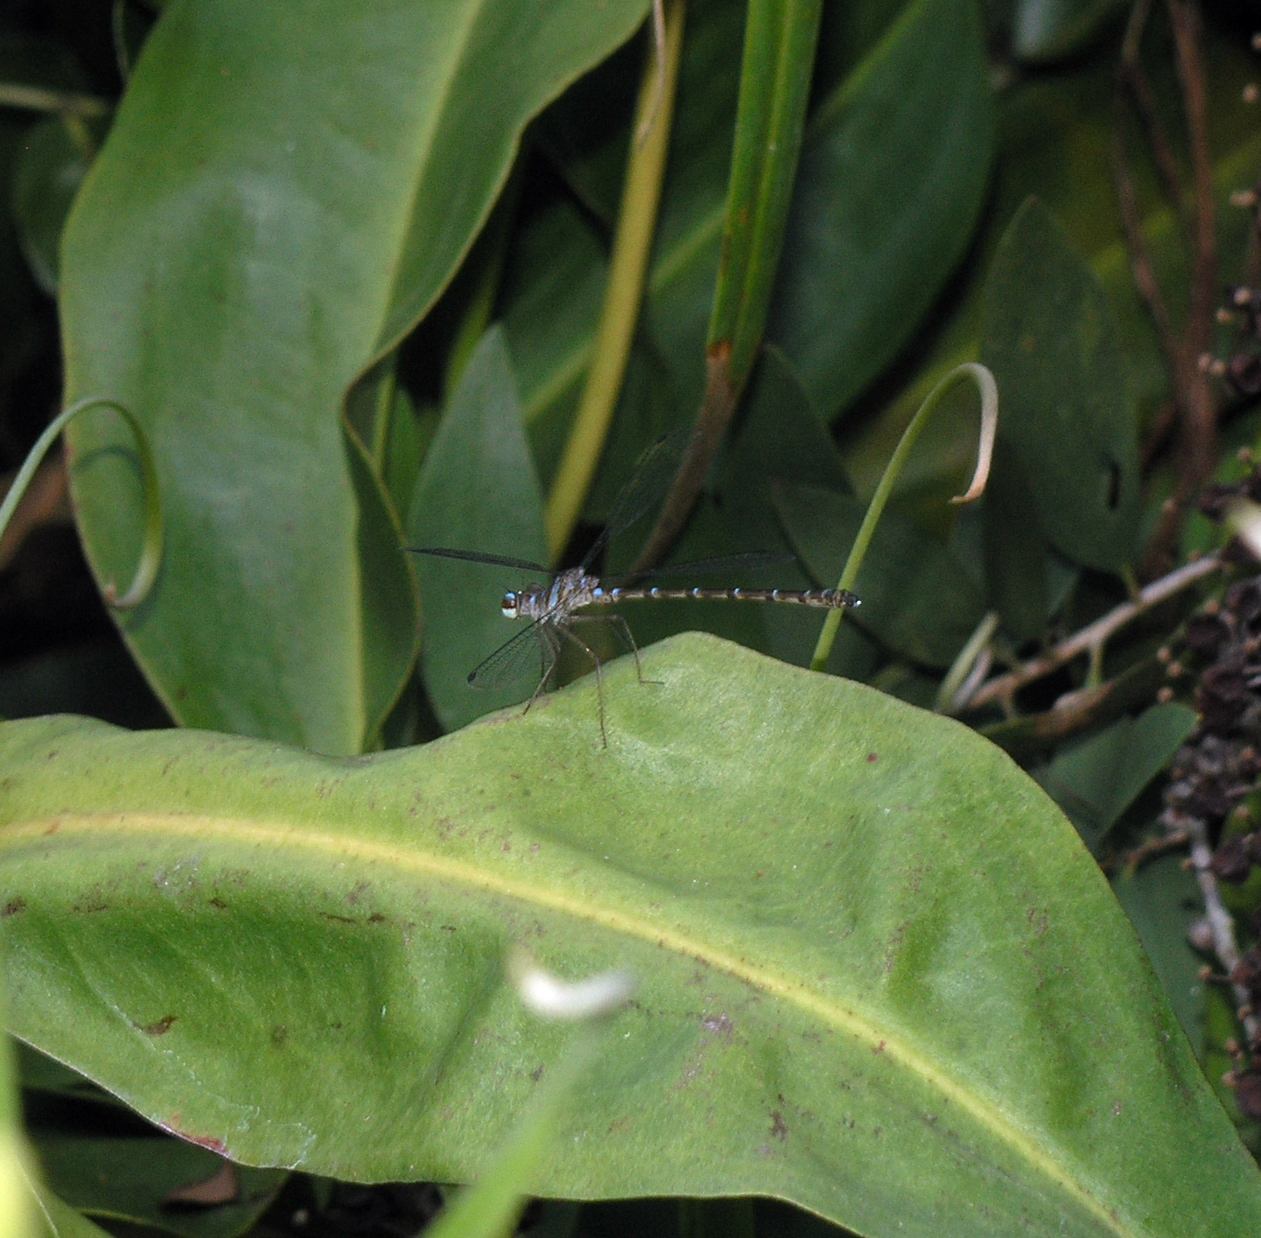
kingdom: Animalia
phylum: Arthropoda
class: Insecta
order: Odonata
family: Argiolestidae
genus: Podolestes
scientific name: Podolestes coomansi
